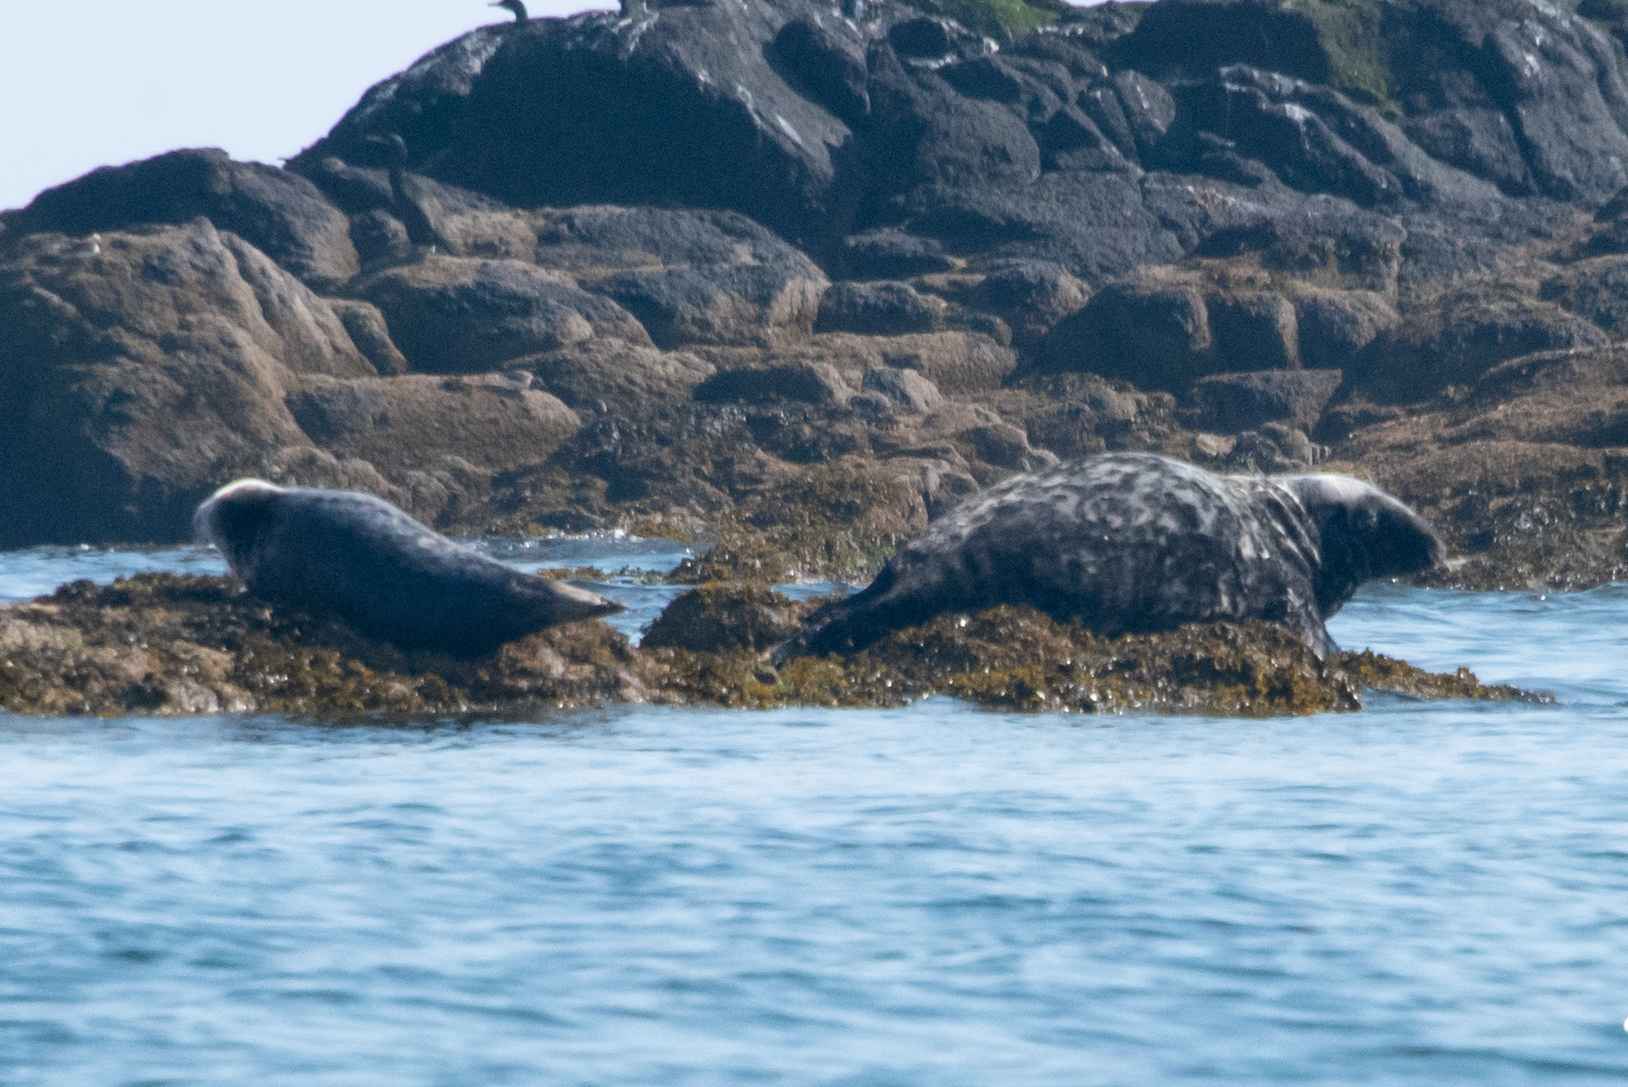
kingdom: Animalia
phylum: Chordata
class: Mammalia
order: Carnivora
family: Phocidae
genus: Halichoerus
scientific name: Halichoerus grypus
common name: Grey seal
